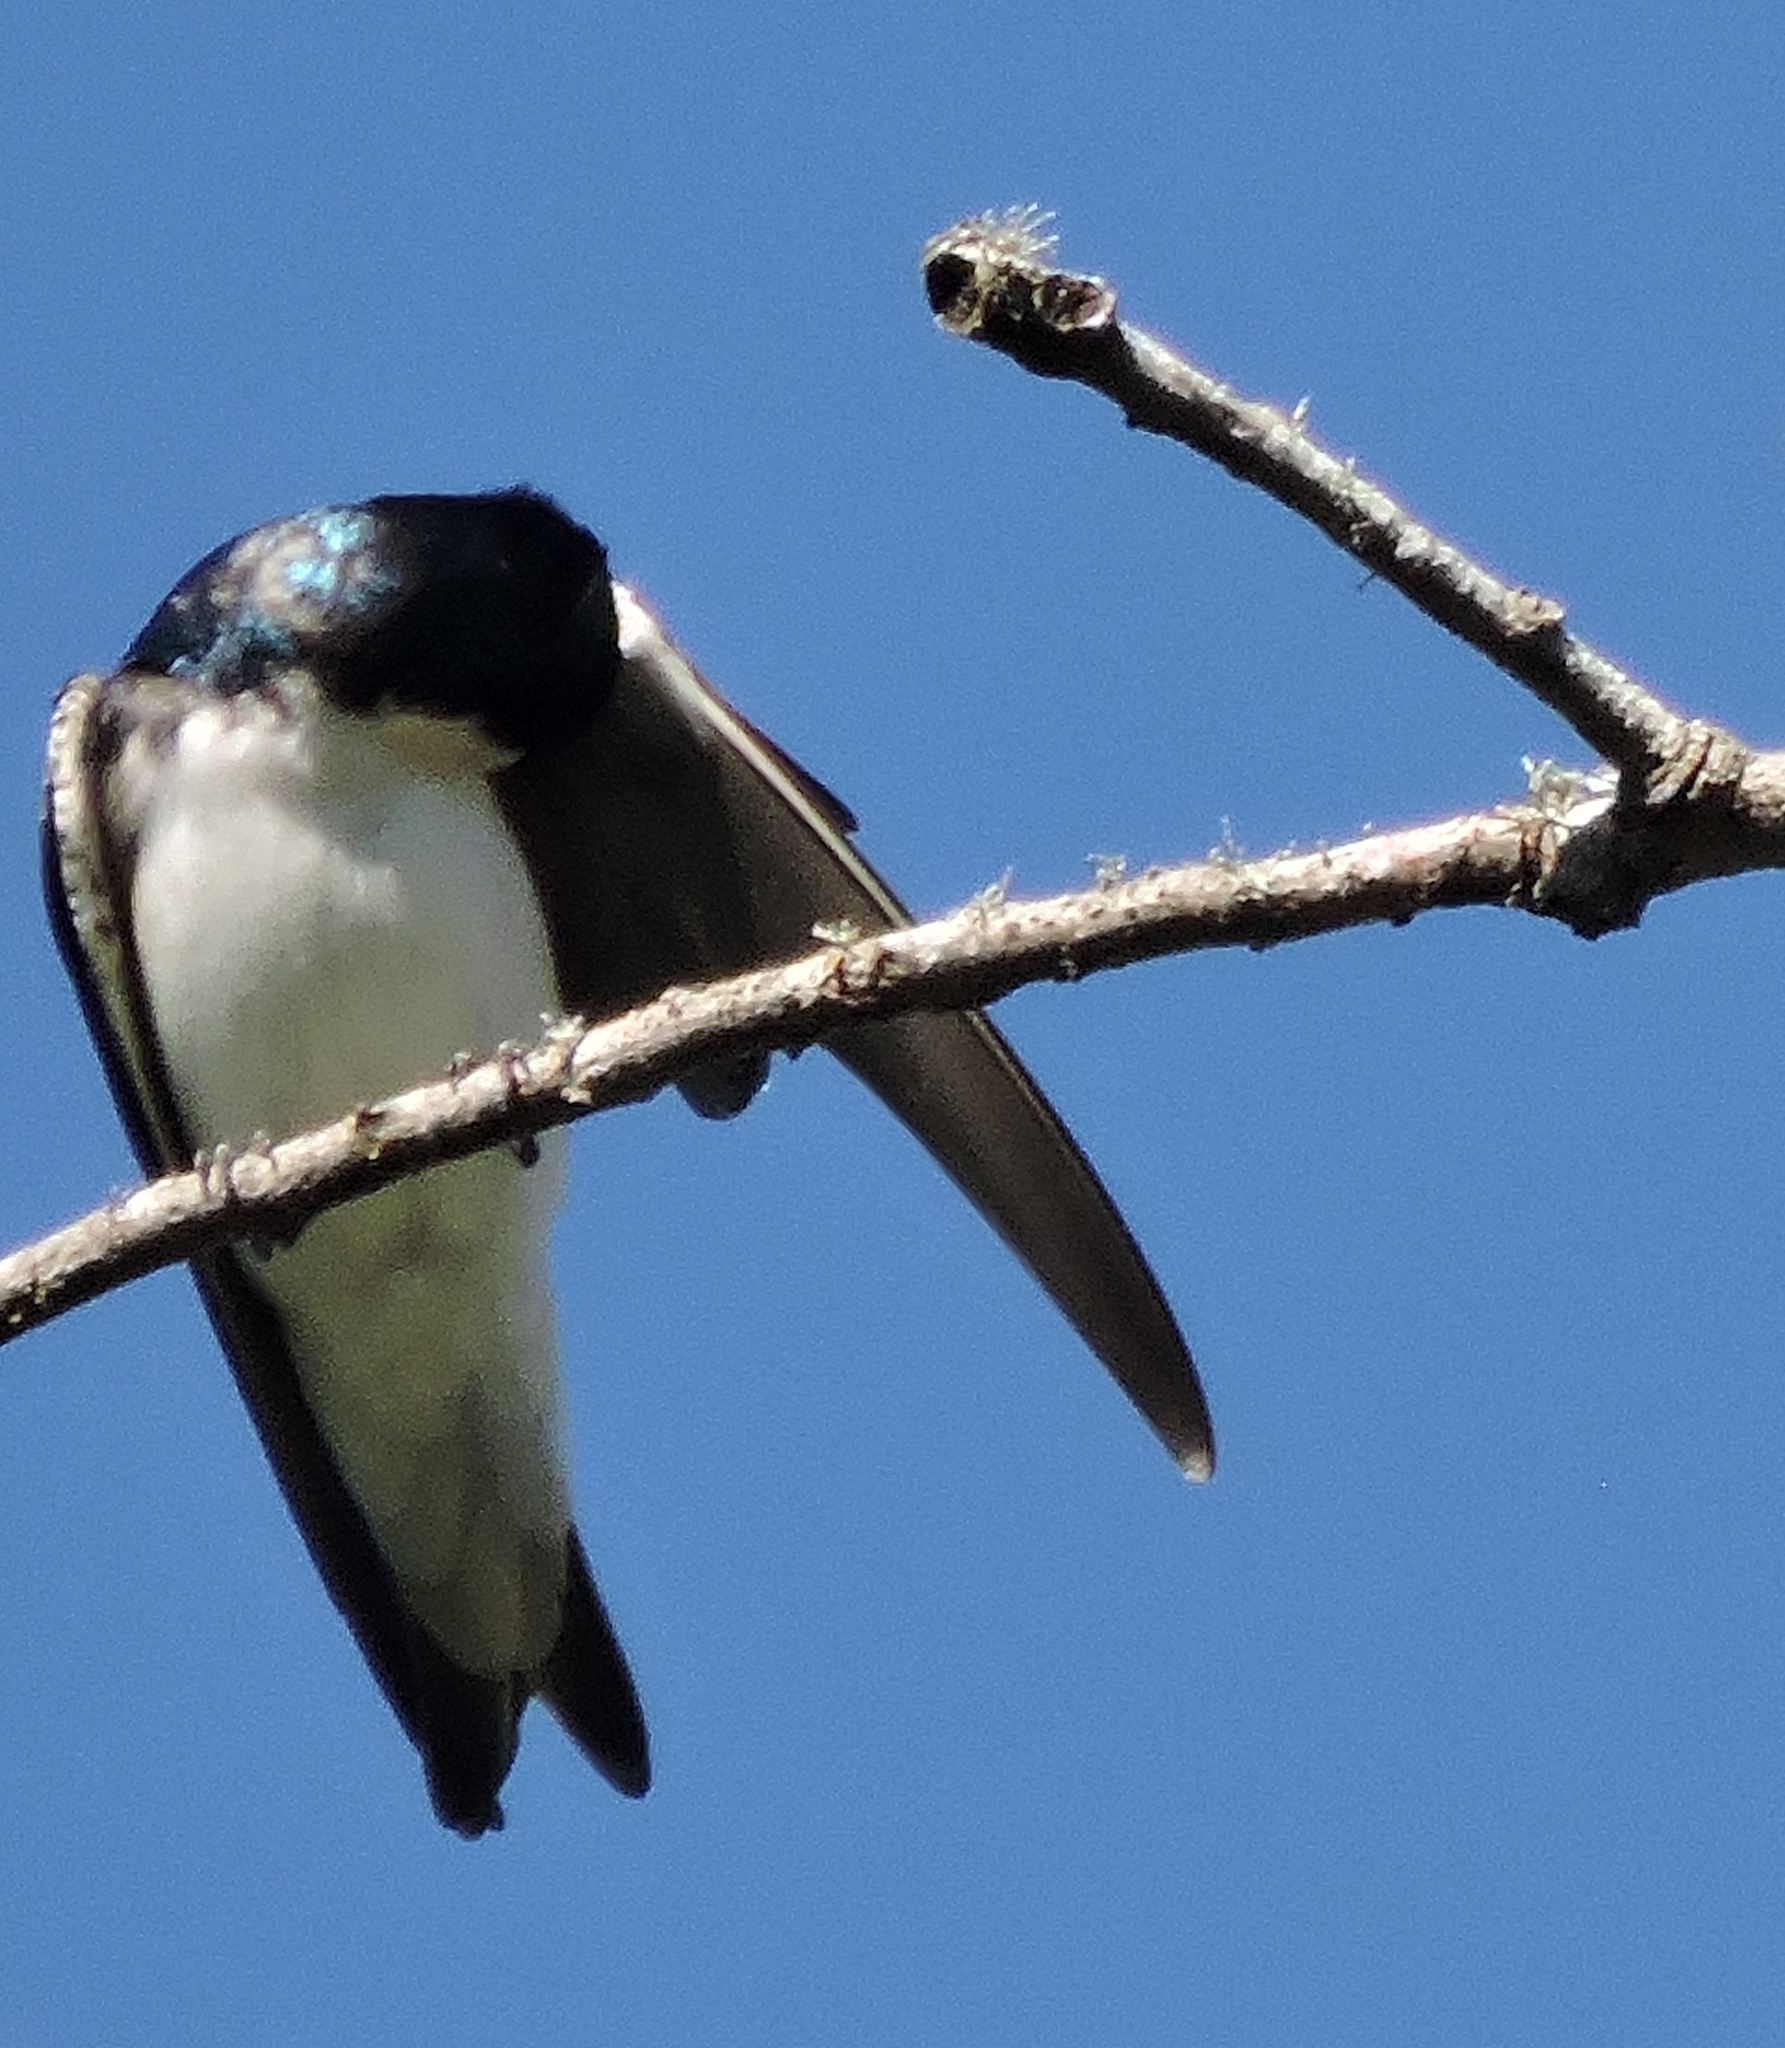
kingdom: Animalia
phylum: Chordata
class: Aves
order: Passeriformes
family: Hirundinidae
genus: Tachycineta
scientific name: Tachycineta bicolor
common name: Tree swallow
